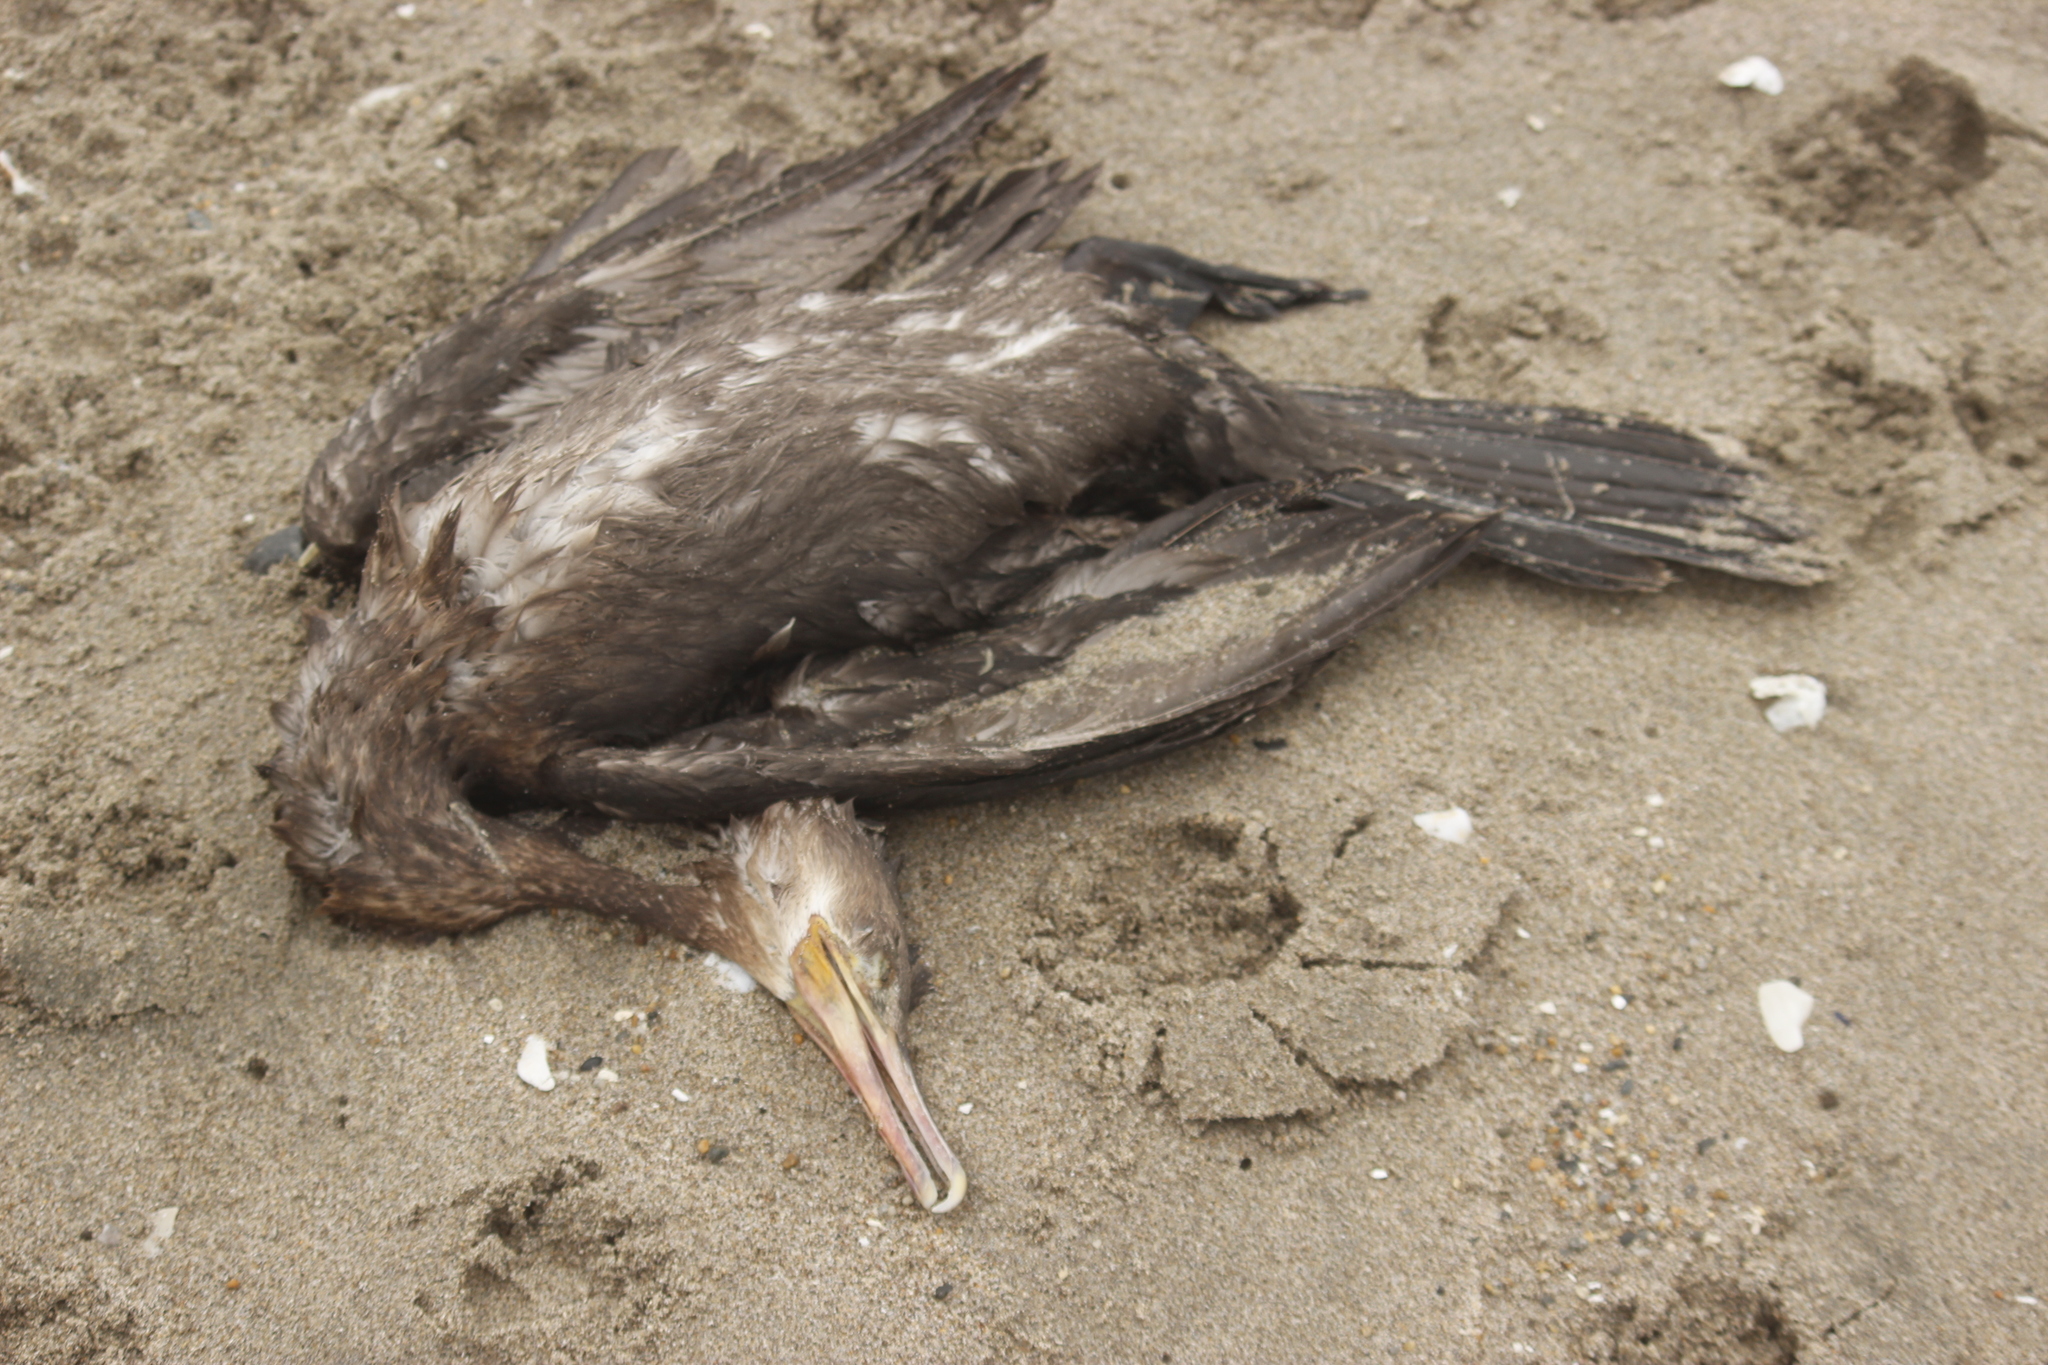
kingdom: Animalia
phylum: Chordata
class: Aves
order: Suliformes
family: Phalacrocoracidae
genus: Phalacrocorax
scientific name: Phalacrocorax brasilianus
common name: Neotropic cormorant
